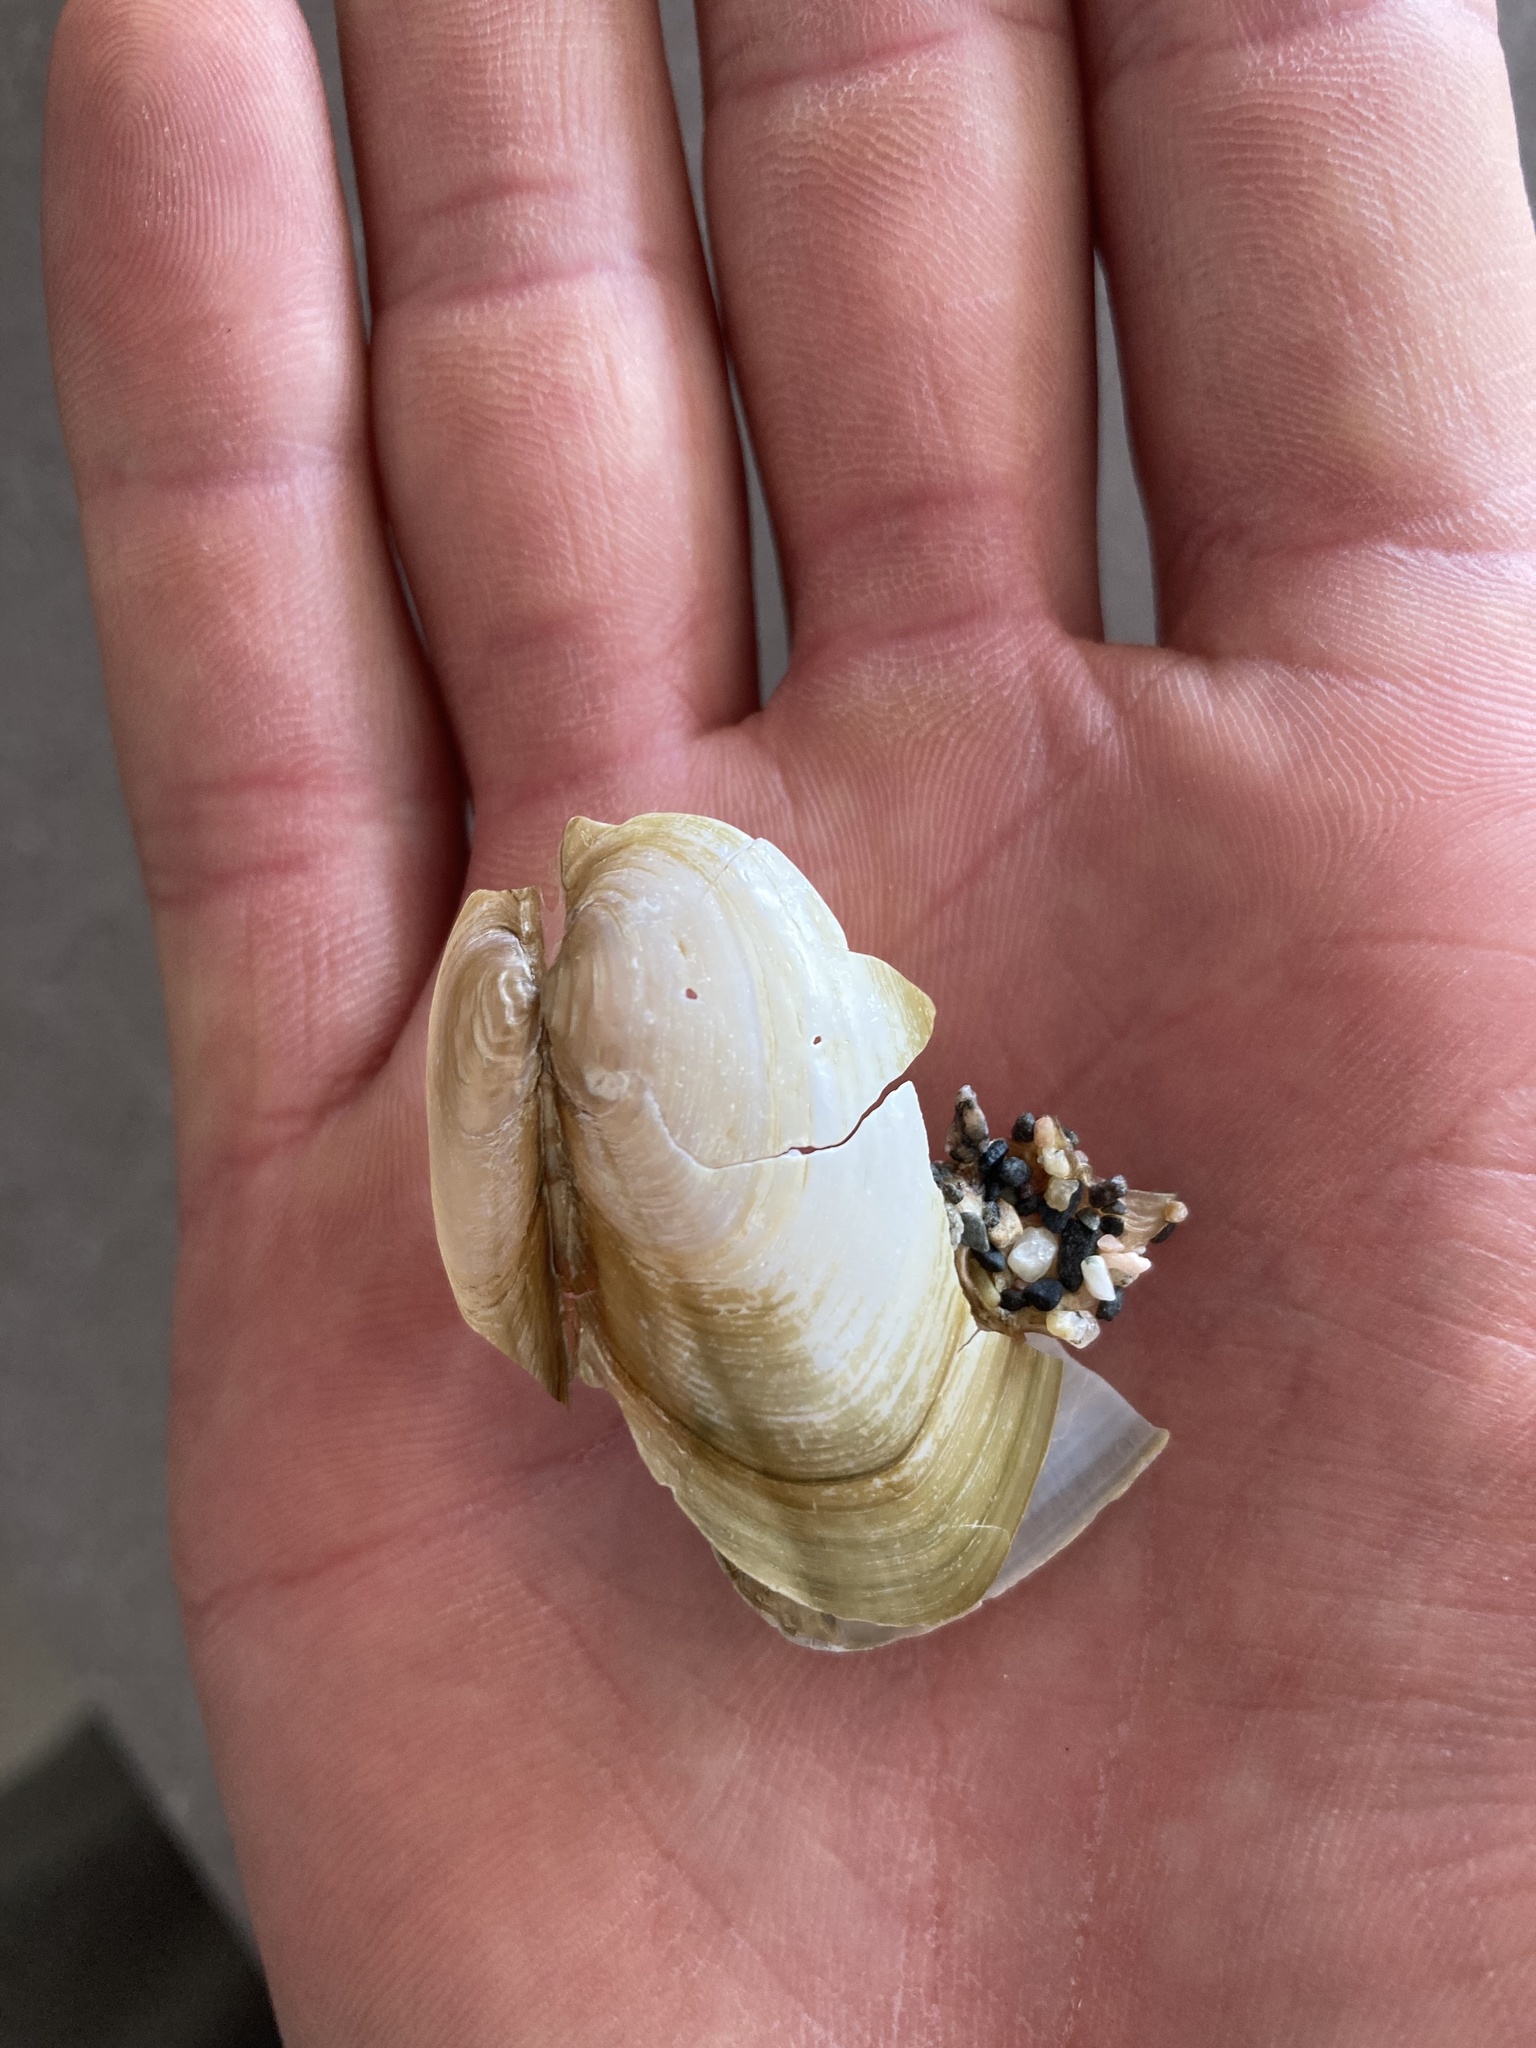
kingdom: Animalia
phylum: Mollusca
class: Bivalvia
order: Unionida
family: Unionidae
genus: Pyganodon
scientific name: Pyganodon lacustris
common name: Lake floater
